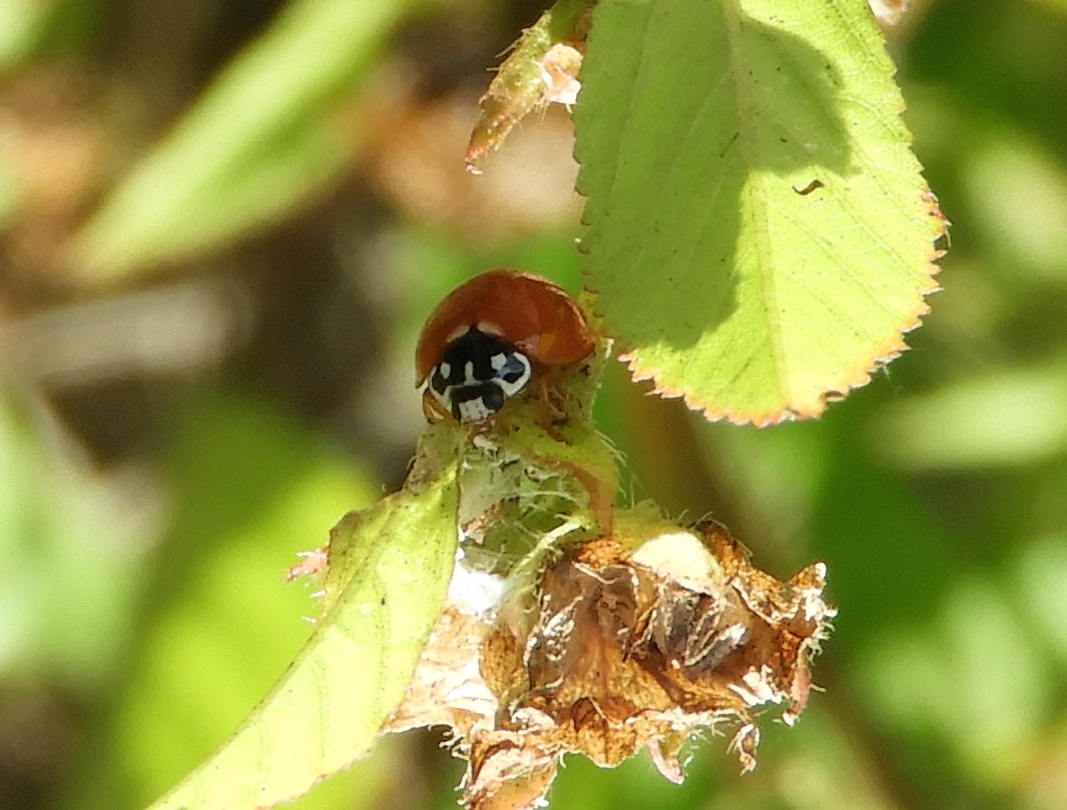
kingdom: Animalia
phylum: Arthropoda
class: Insecta
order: Coleoptera
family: Coccinellidae
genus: Cycloneda
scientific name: Cycloneda sanguinea
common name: Ladybird beetle
